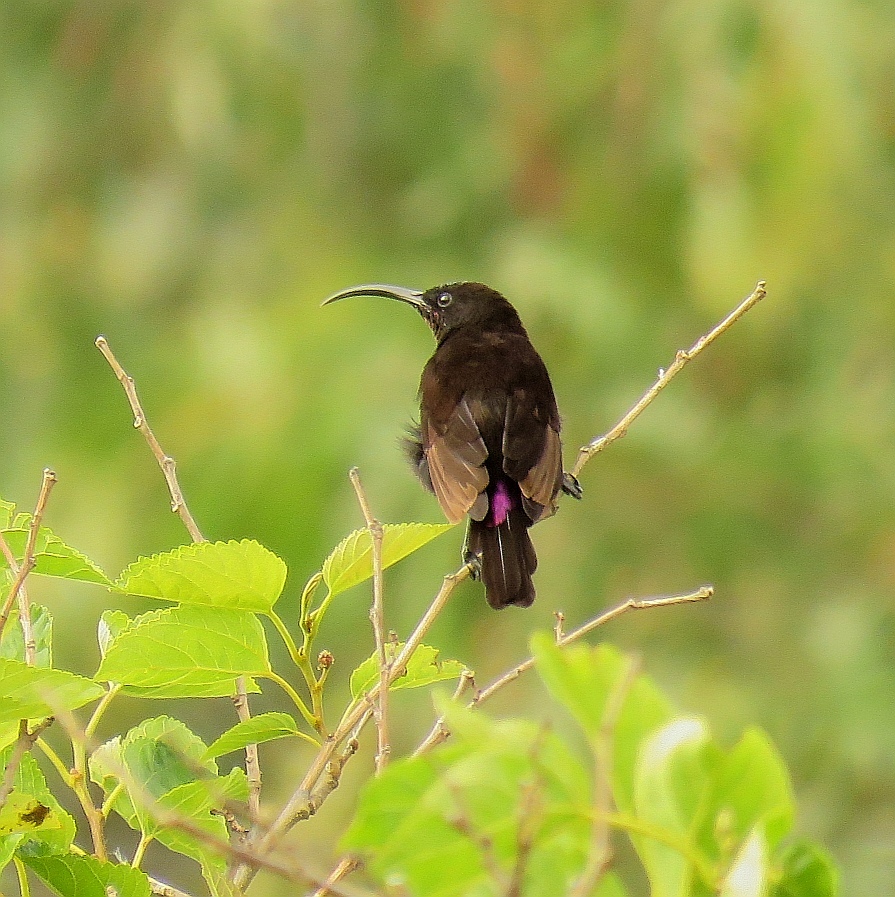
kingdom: Animalia
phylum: Chordata
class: Aves
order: Passeriformes
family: Nectariniidae
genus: Chalcomitra
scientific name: Chalcomitra amethystina
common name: Amethyst sunbird
